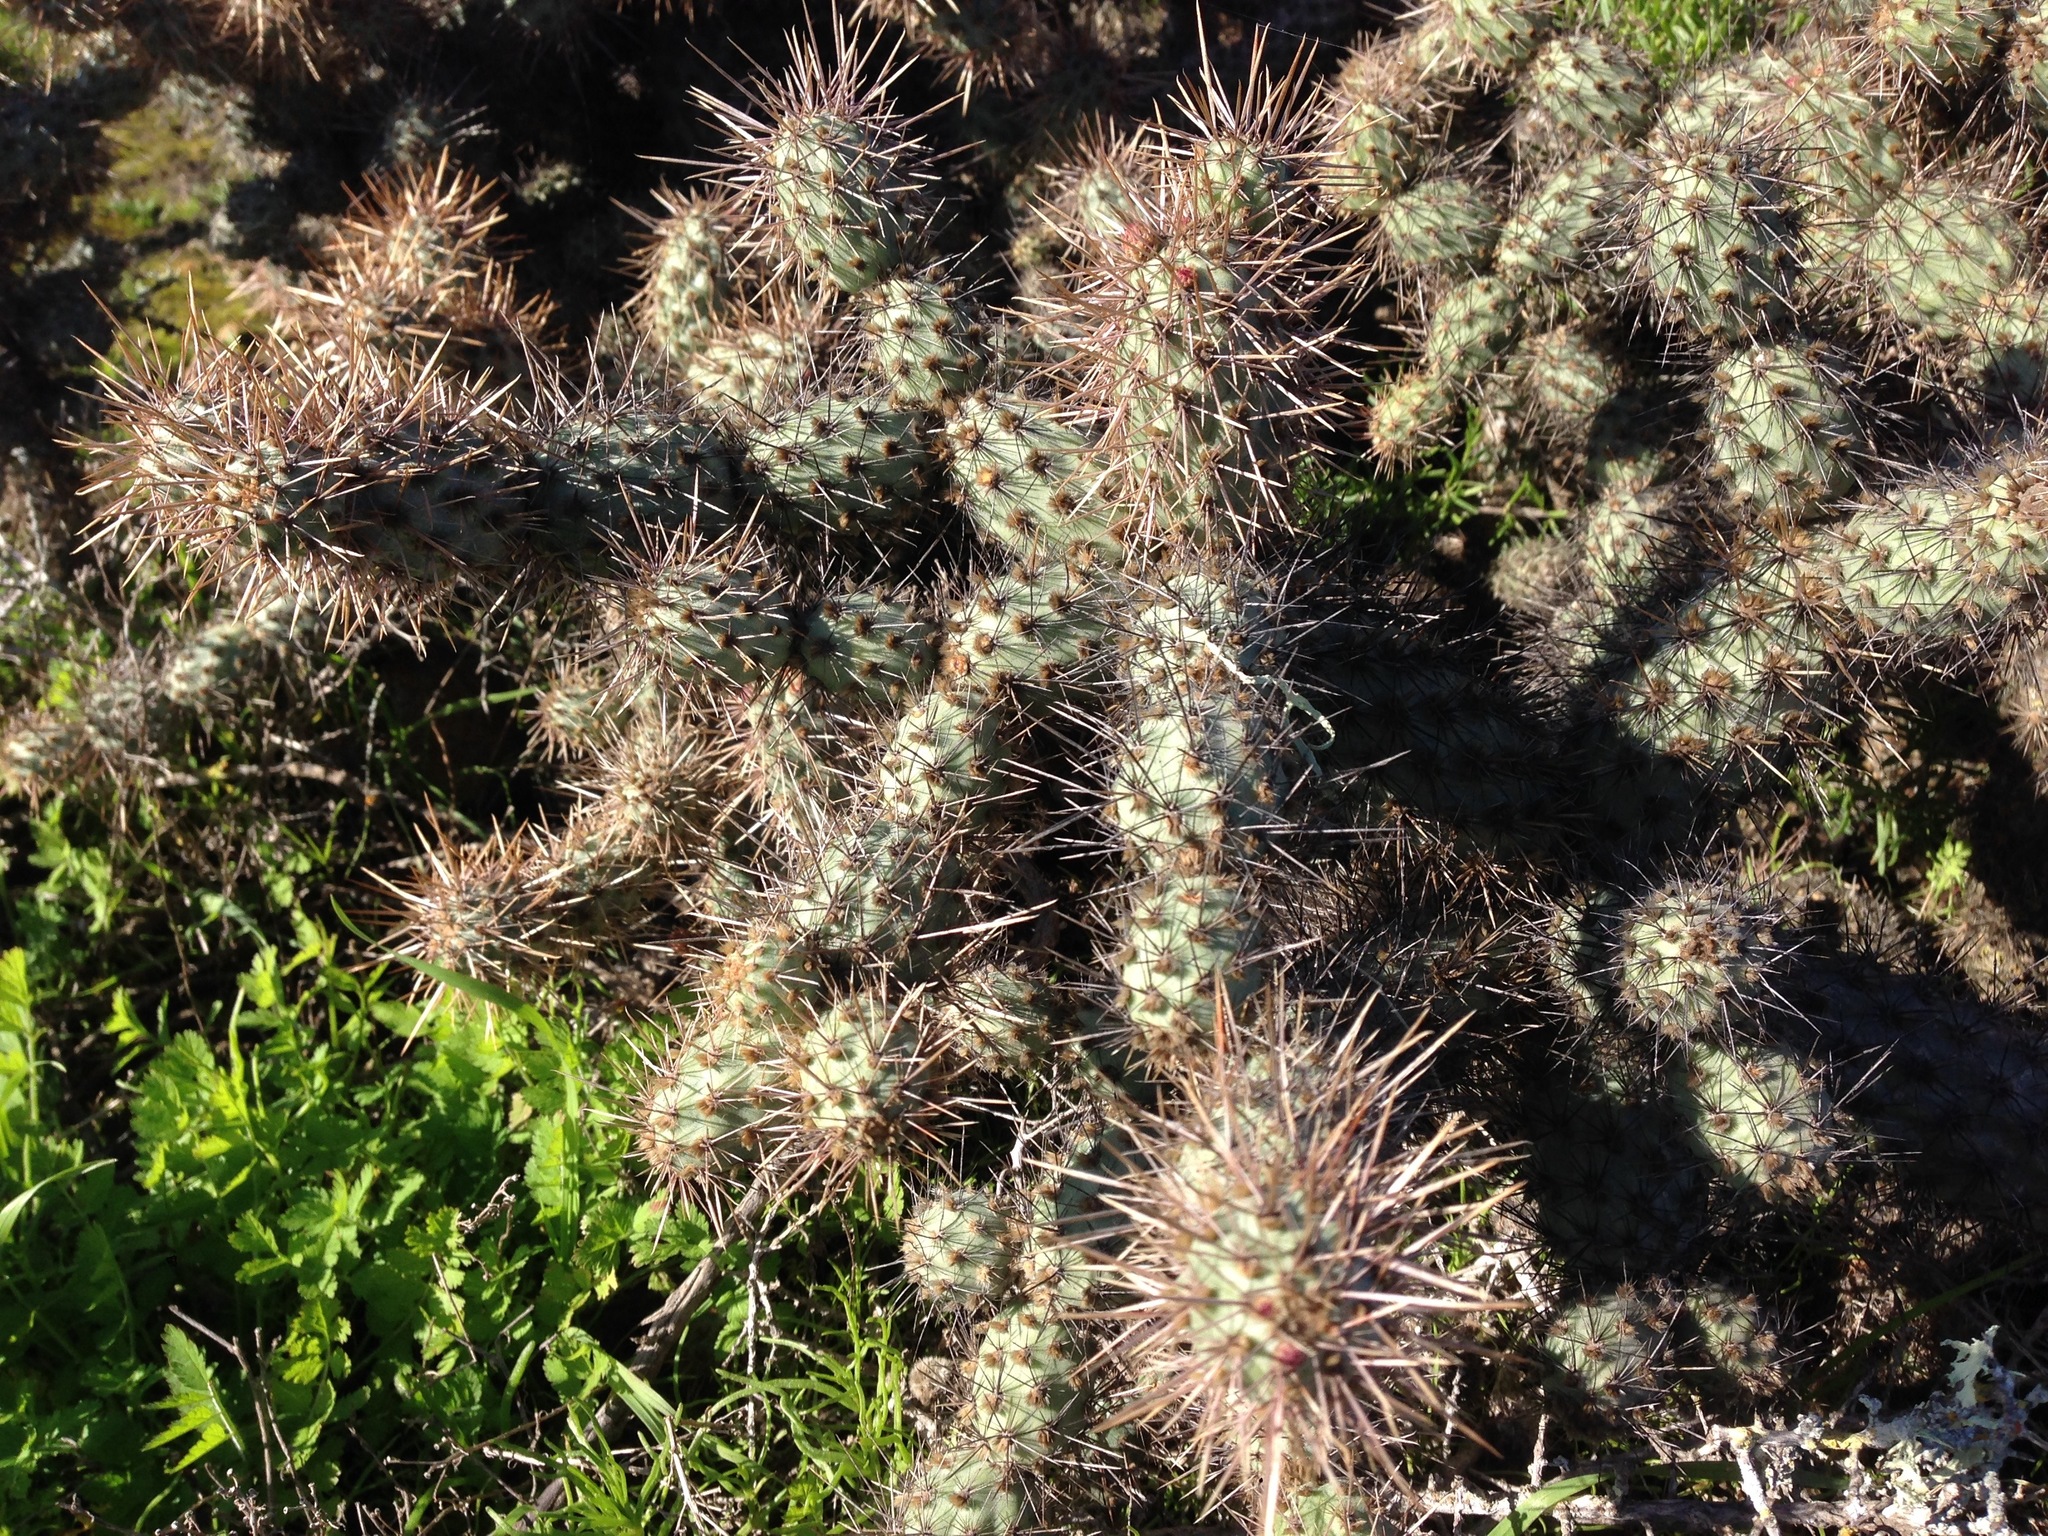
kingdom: Plantae
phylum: Tracheophyta
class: Magnoliopsida
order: Caryophyllales
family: Cactaceae
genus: Cylindropuntia
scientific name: Cylindropuntia prolifera
